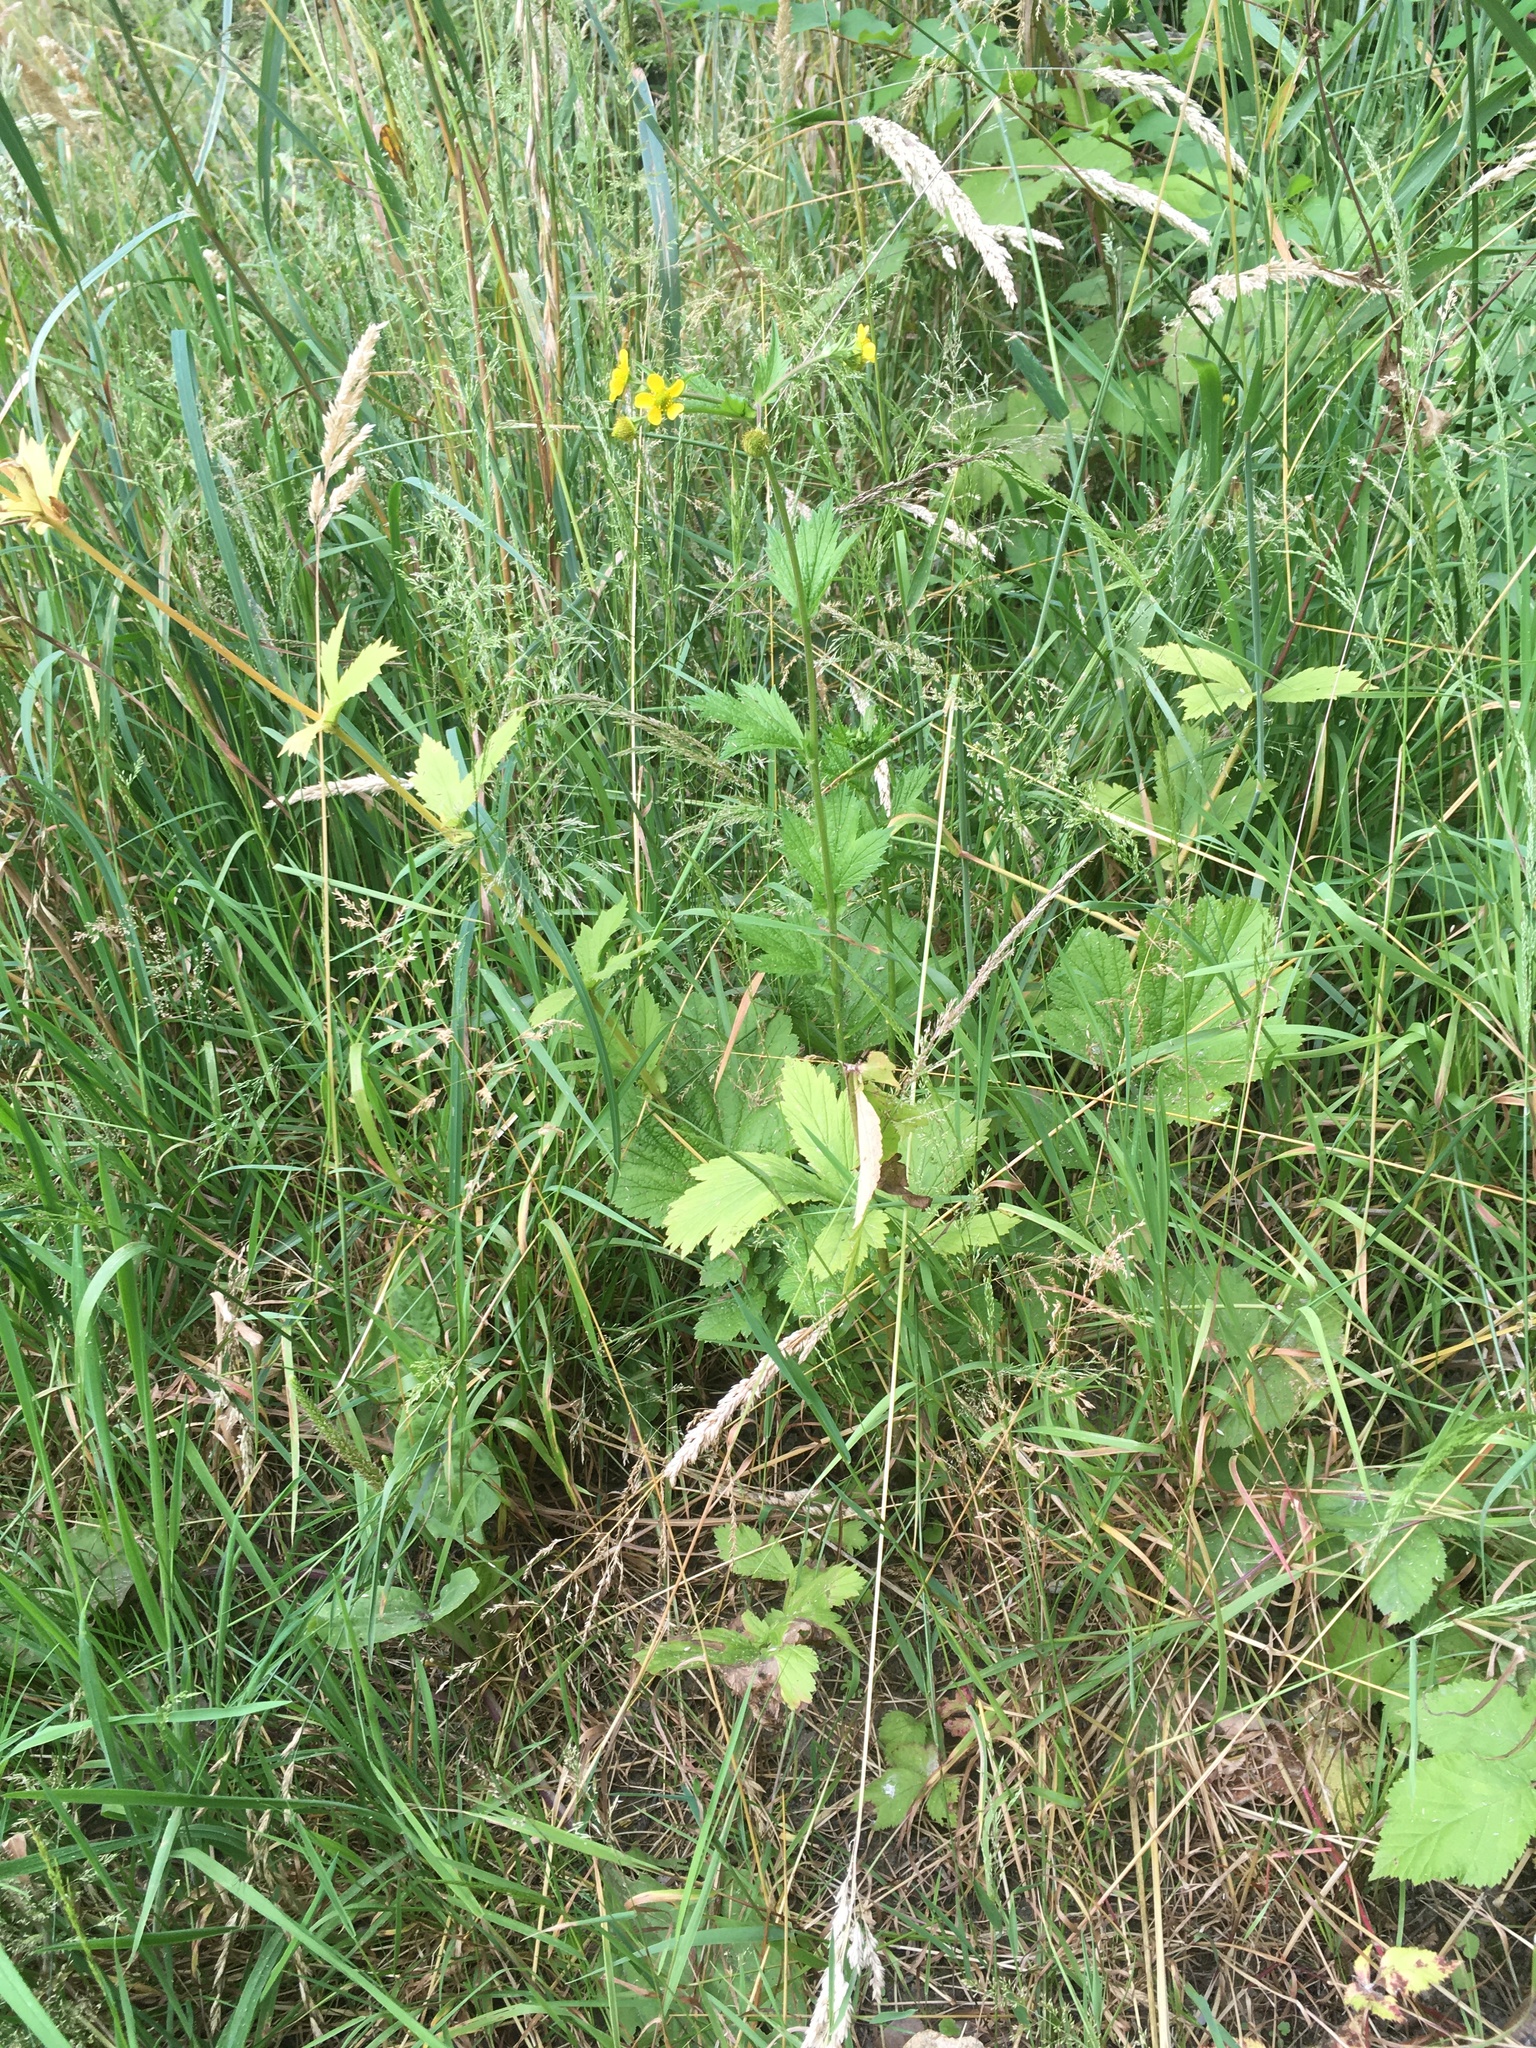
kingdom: Plantae
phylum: Tracheophyta
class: Magnoliopsida
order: Rosales
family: Rosaceae
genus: Geum
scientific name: Geum macrophyllum
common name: Large-leaved avens
